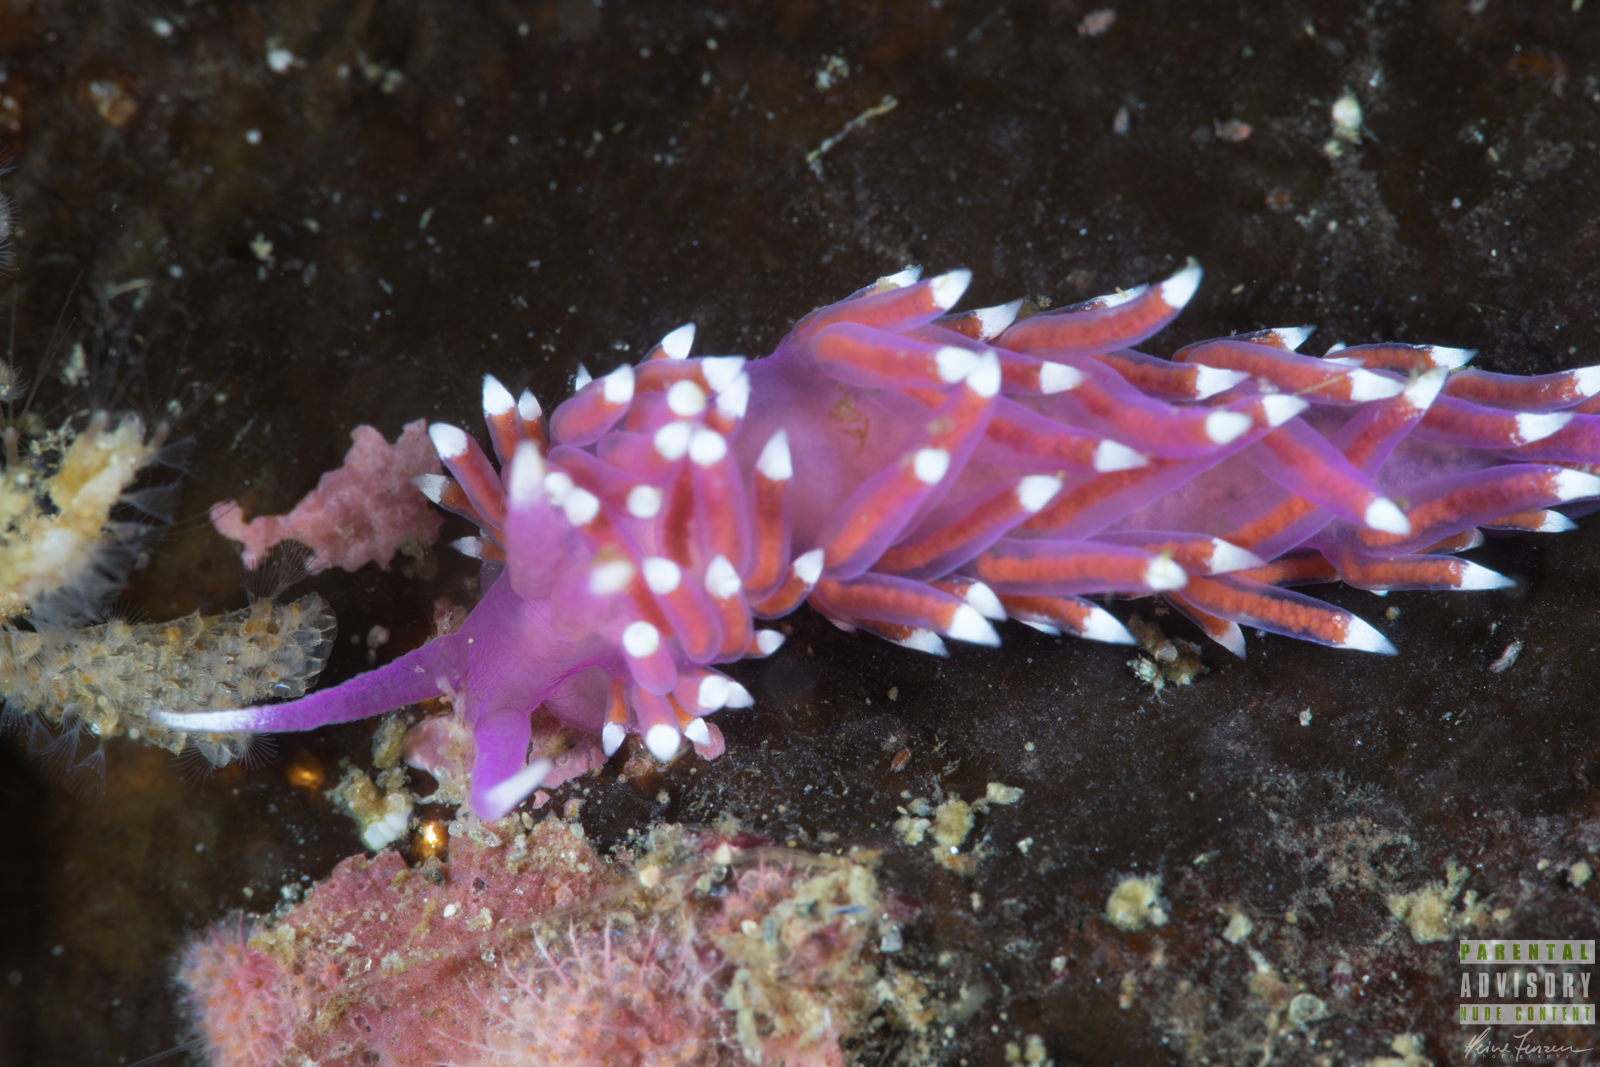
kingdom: Animalia
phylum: Mollusca
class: Gastropoda
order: Nudibranchia
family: Flabellinidae
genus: Edmundsella
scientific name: Edmundsella pedata
